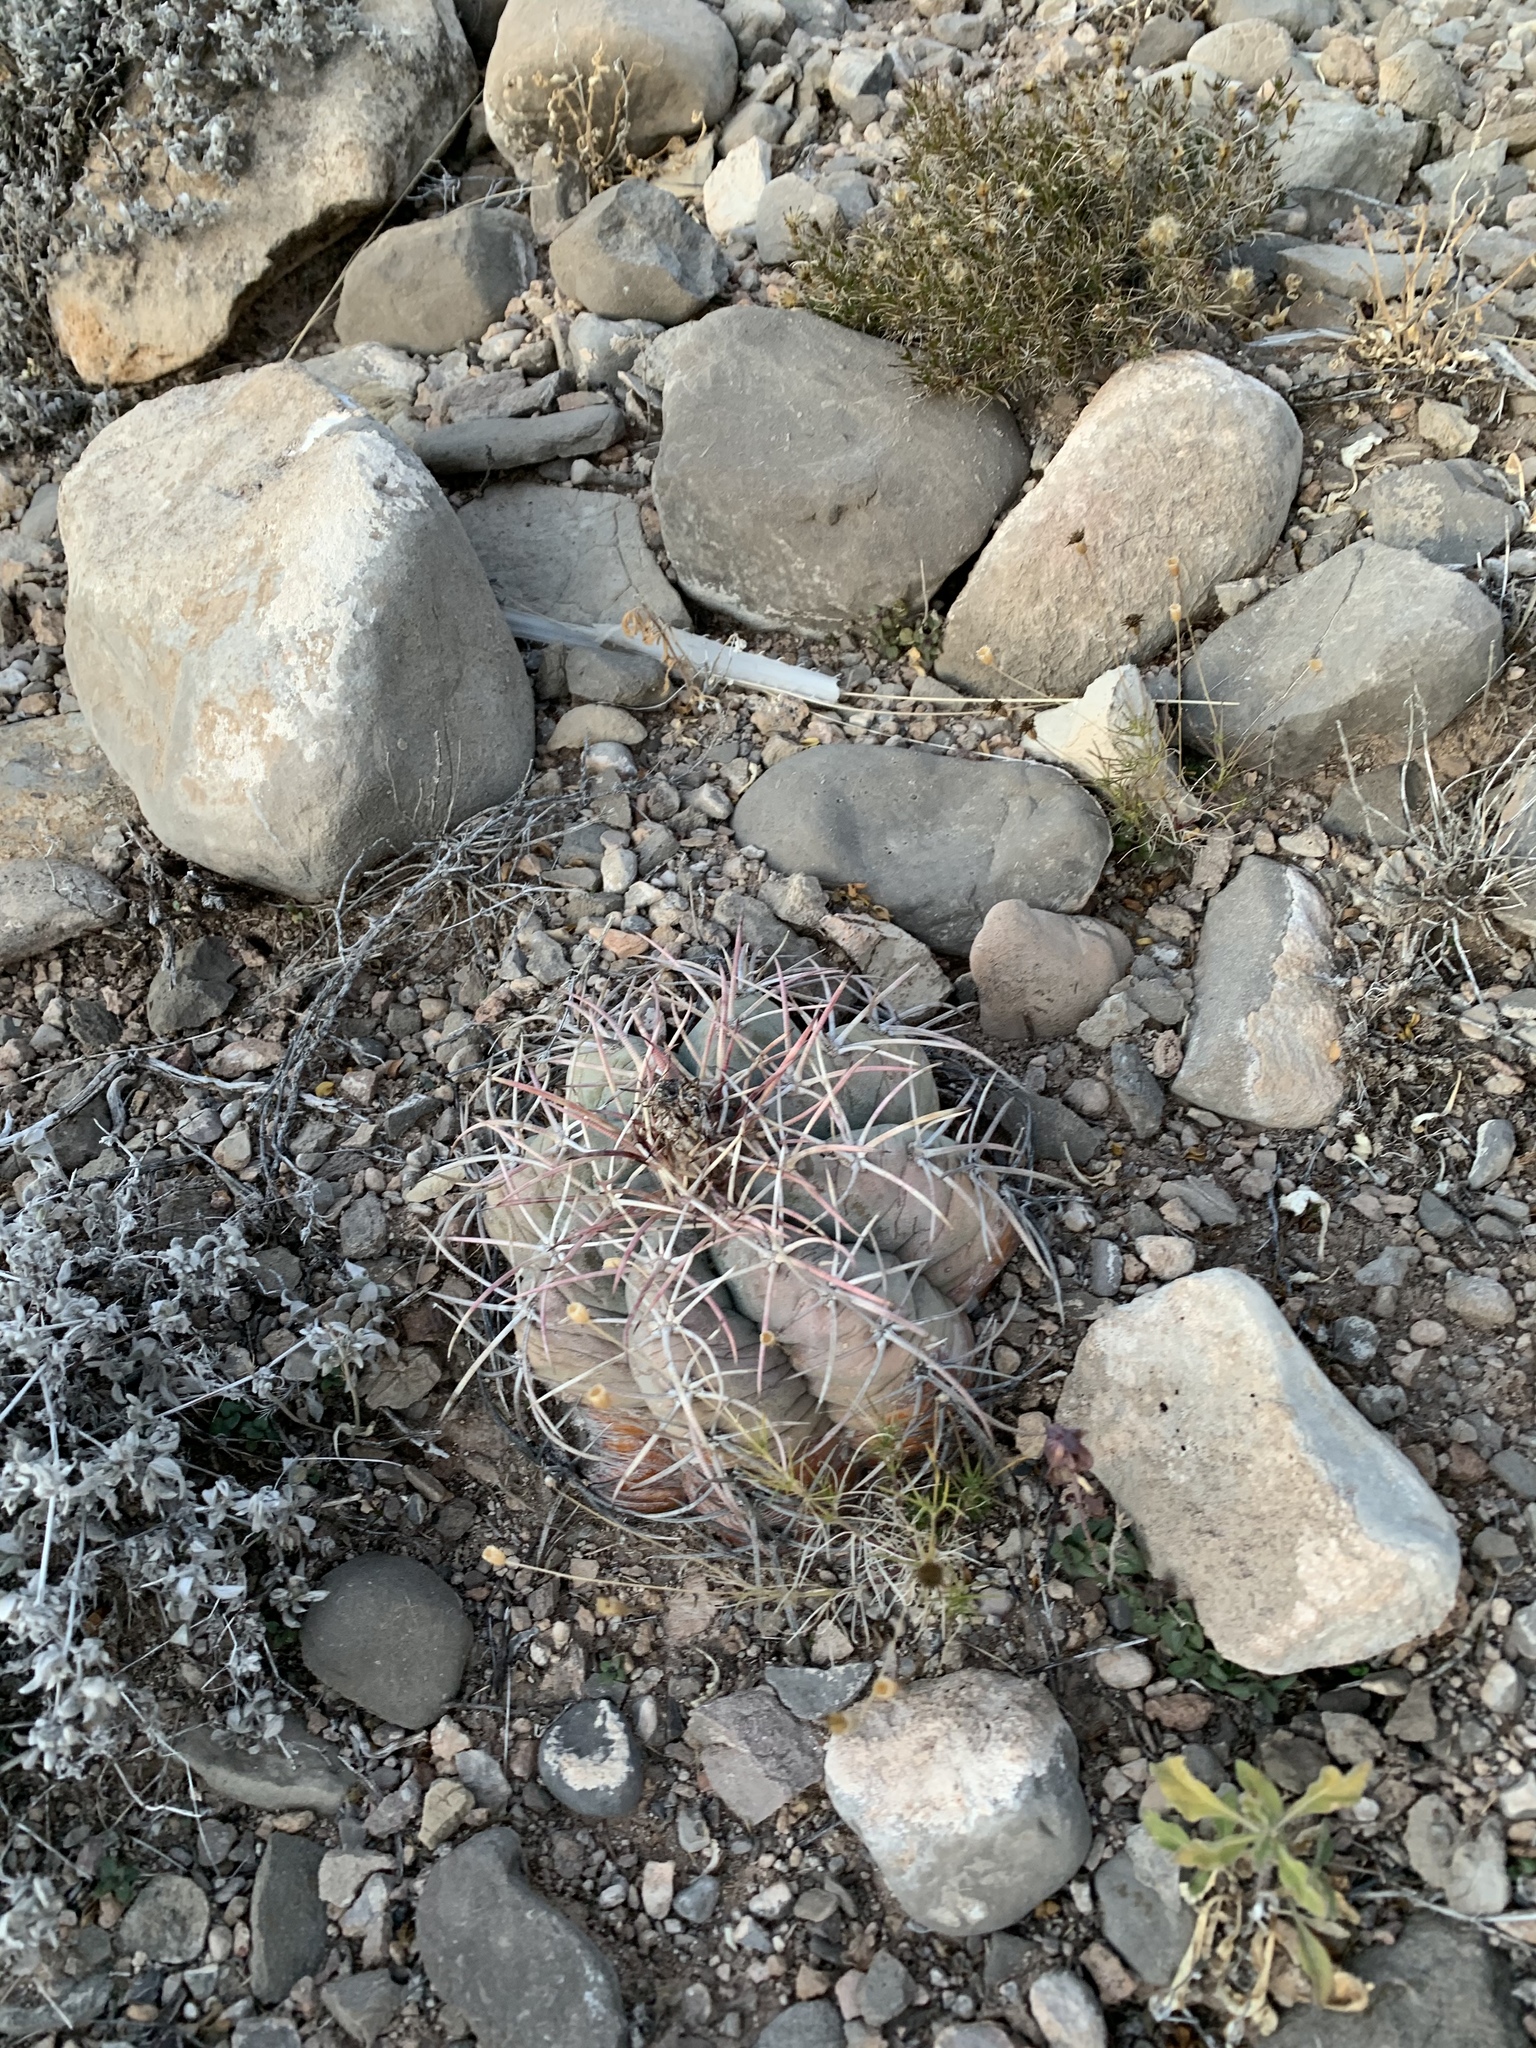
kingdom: Plantae
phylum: Tracheophyta
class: Magnoliopsida
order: Caryophyllales
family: Cactaceae
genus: Echinocactus
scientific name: Echinocactus horizonthalonius
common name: Devilshead
